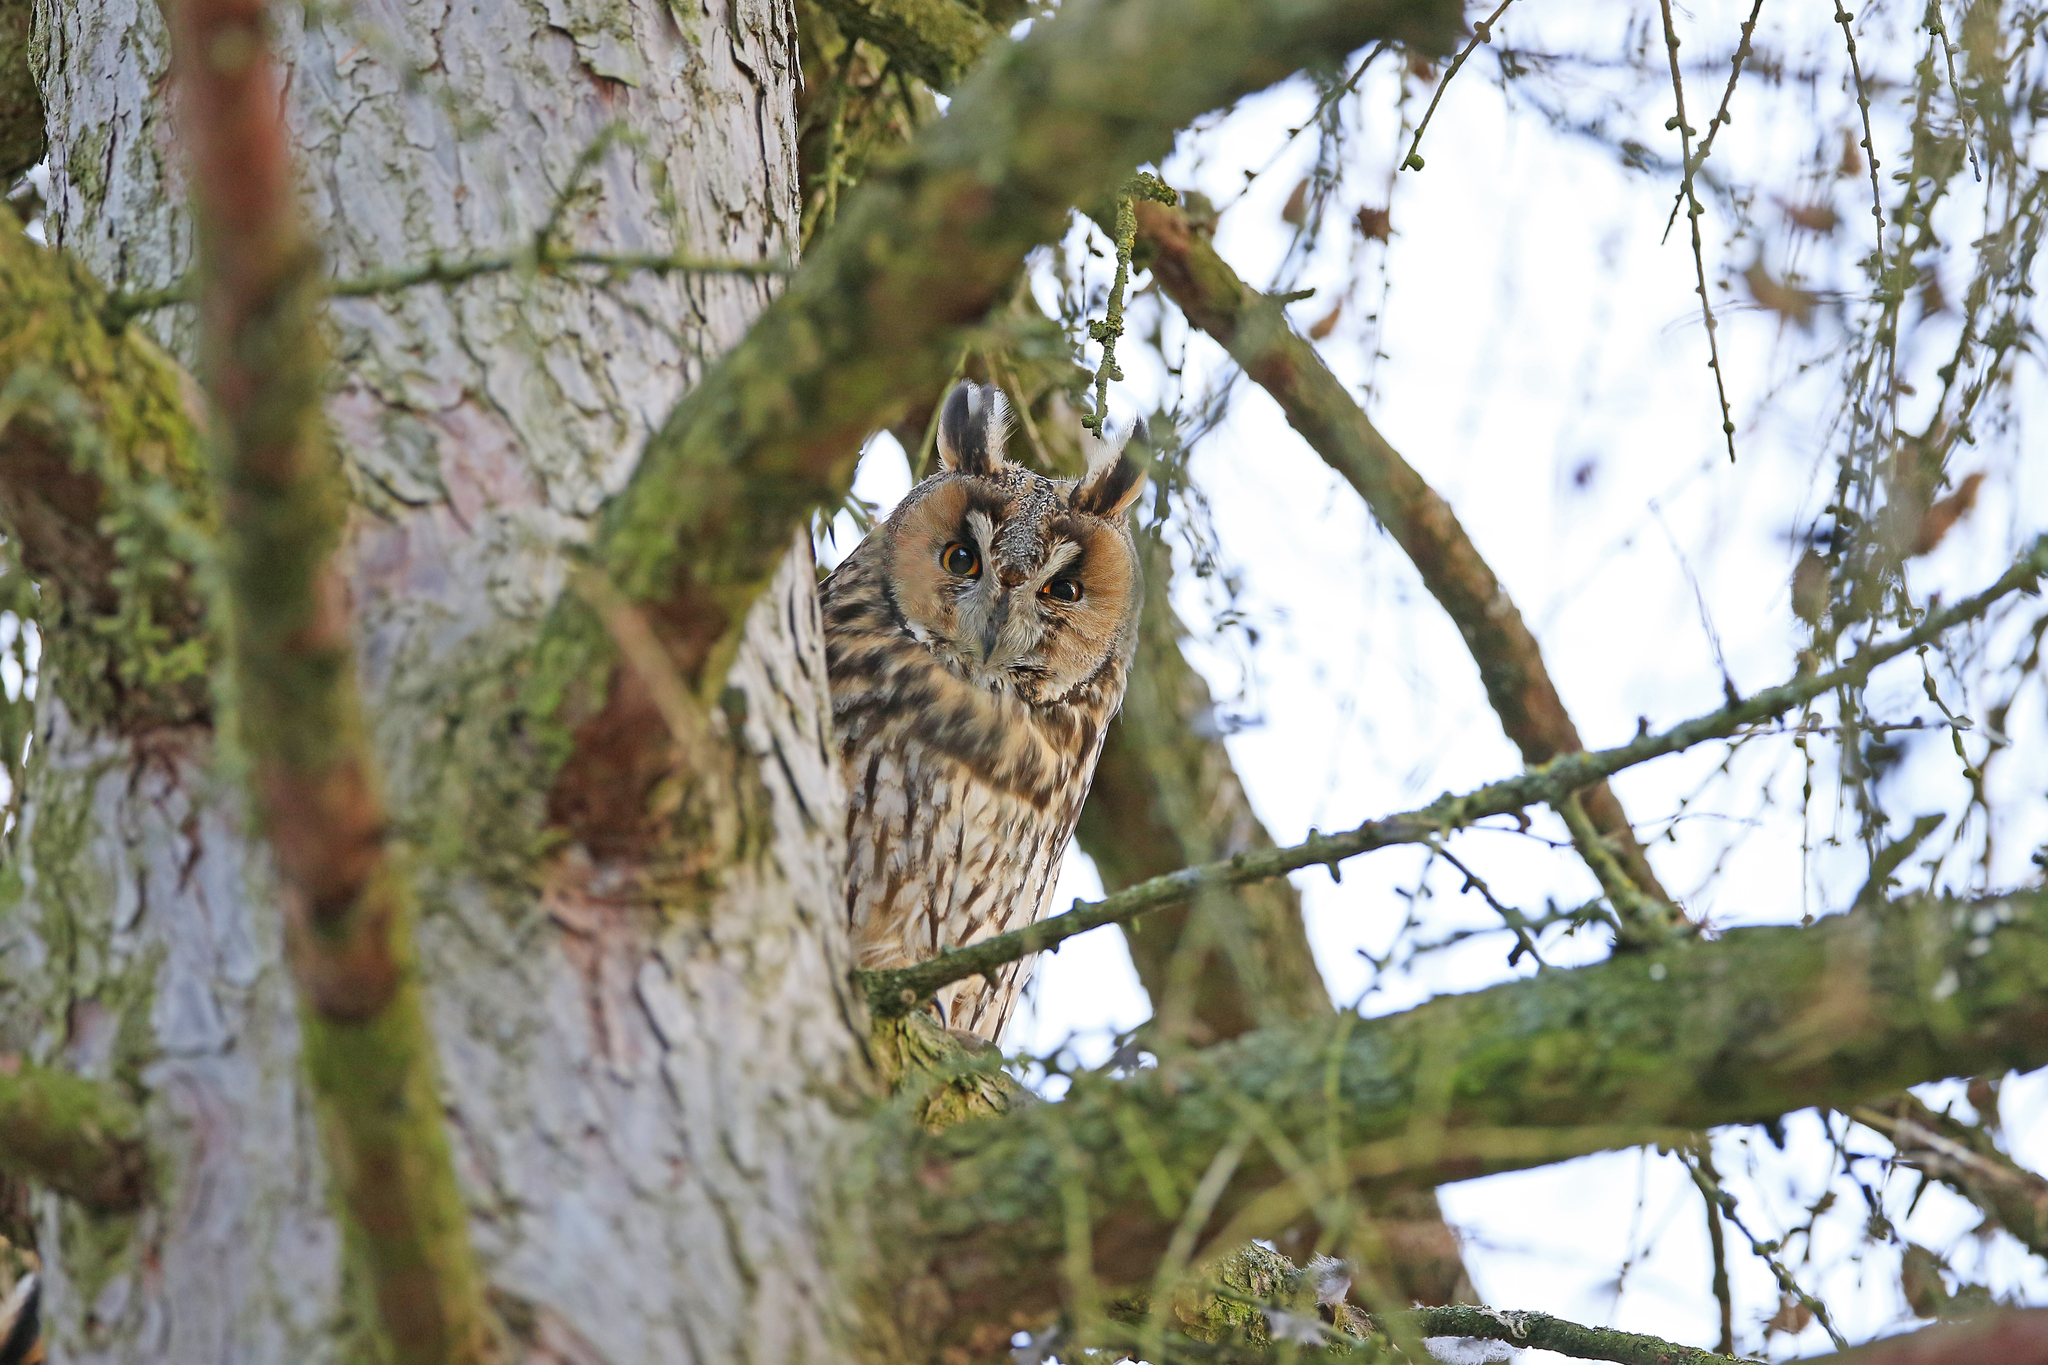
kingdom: Animalia
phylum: Chordata
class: Aves
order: Strigiformes
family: Strigidae
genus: Asio
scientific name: Asio otus
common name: Long-eared owl
